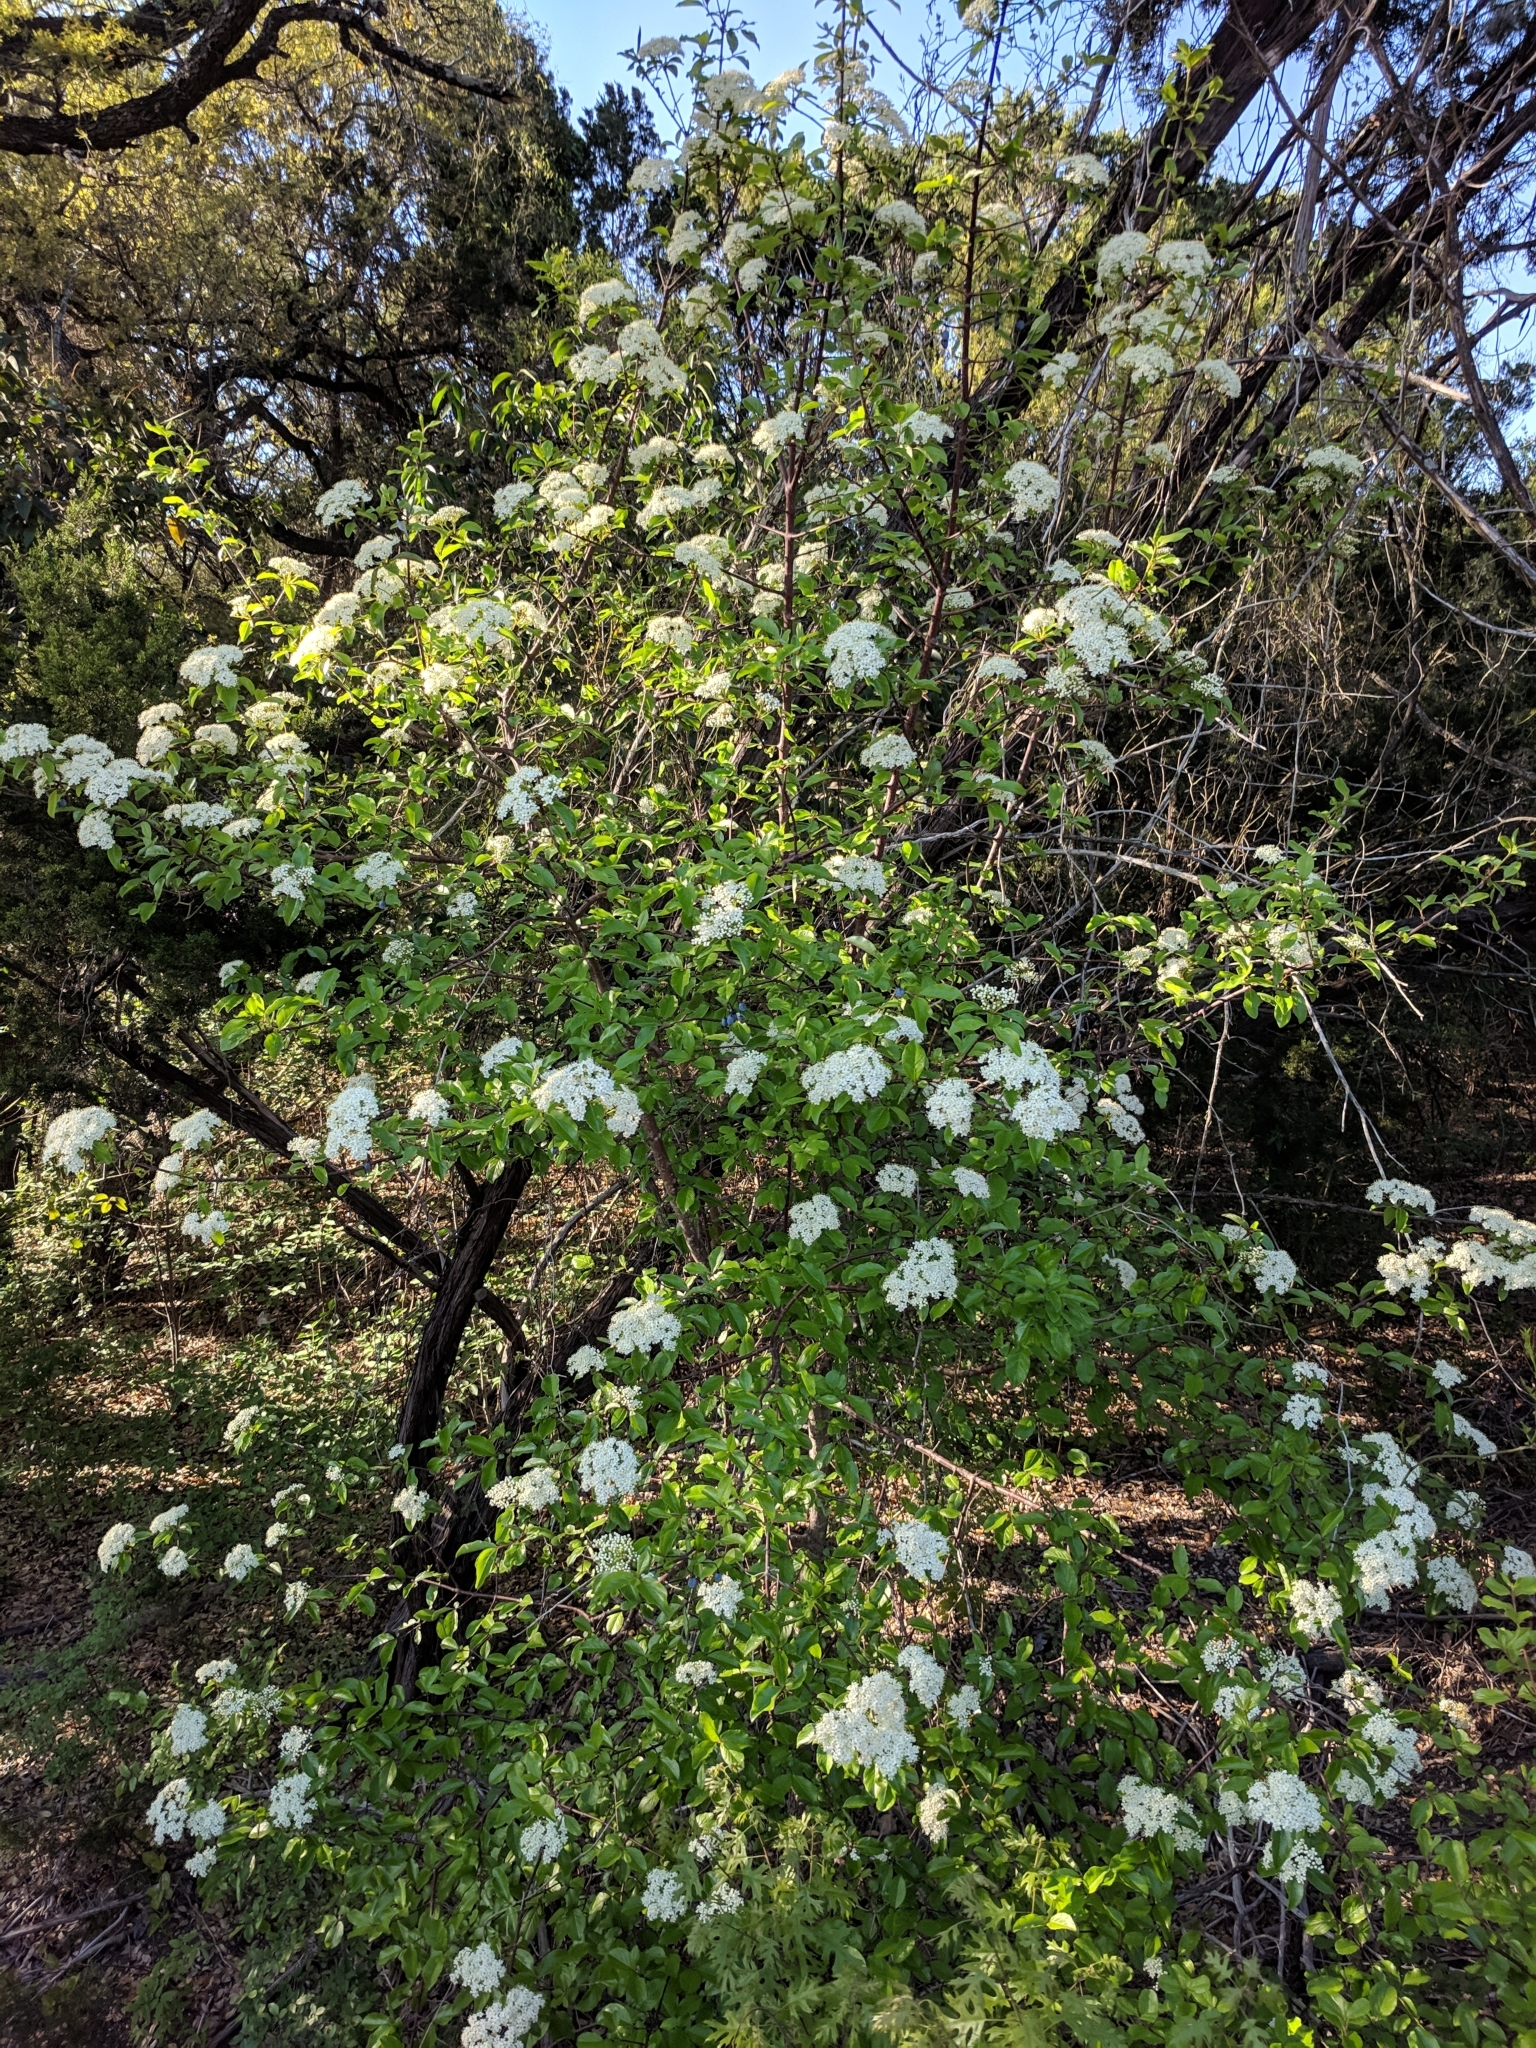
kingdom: Plantae
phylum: Tracheophyta
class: Magnoliopsida
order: Dipsacales
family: Viburnaceae
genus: Viburnum
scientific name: Viburnum rufidulum
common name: Blue haw
